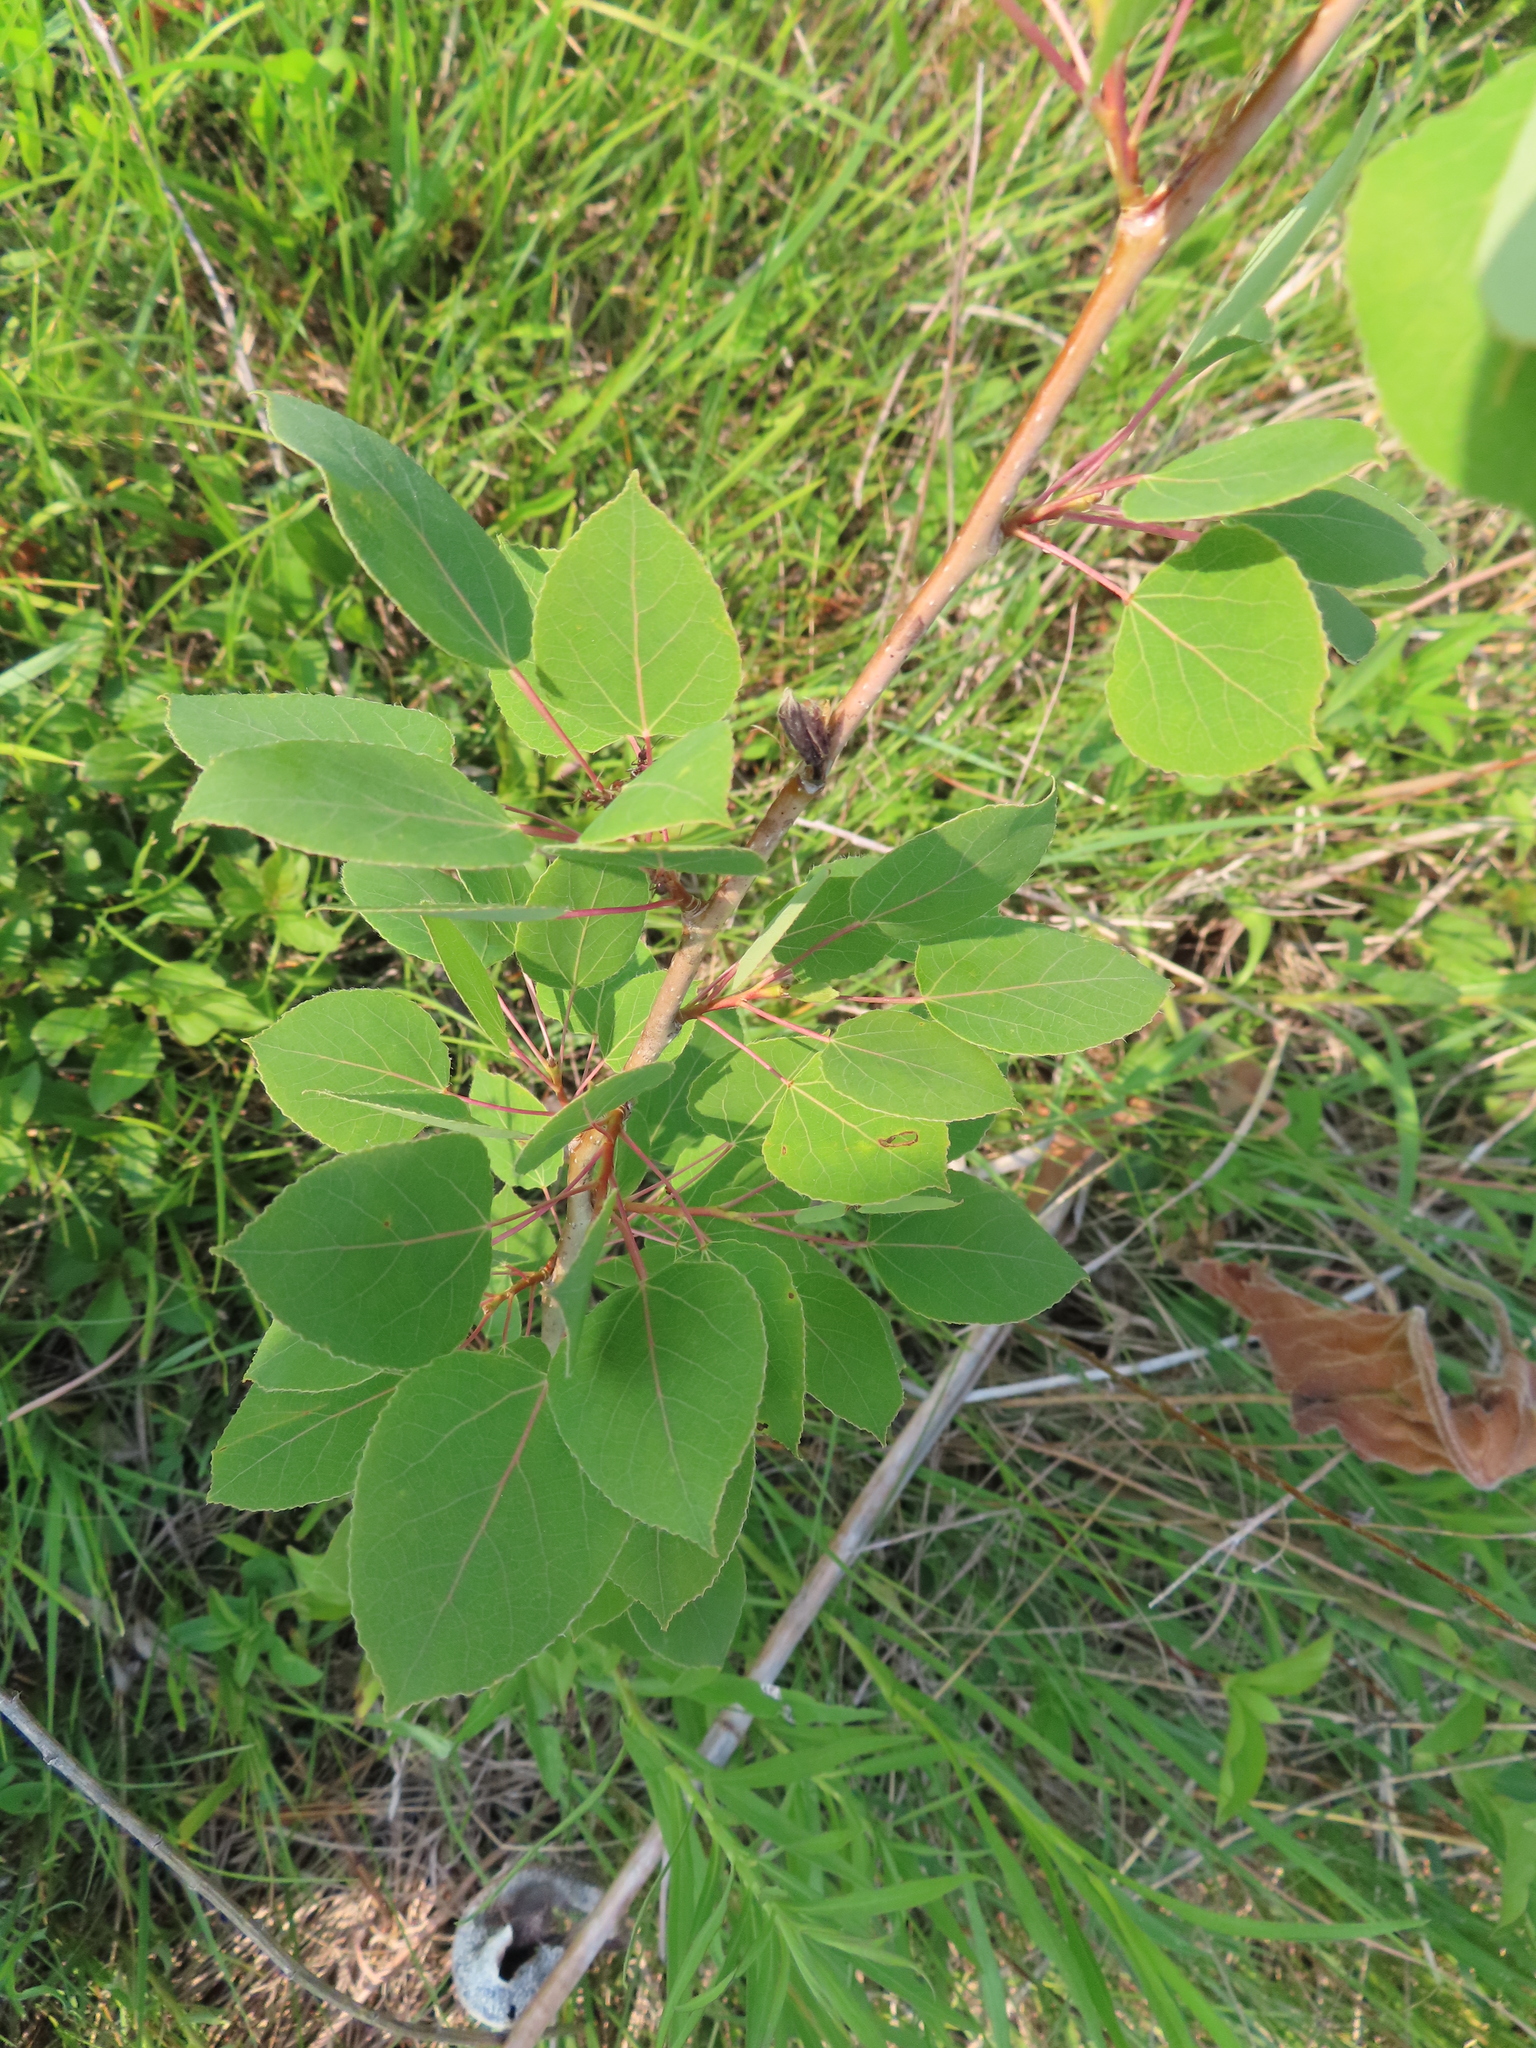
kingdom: Plantae
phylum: Tracheophyta
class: Magnoliopsida
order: Malpighiales
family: Salicaceae
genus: Populus
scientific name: Populus tremuloides
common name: Quaking aspen
